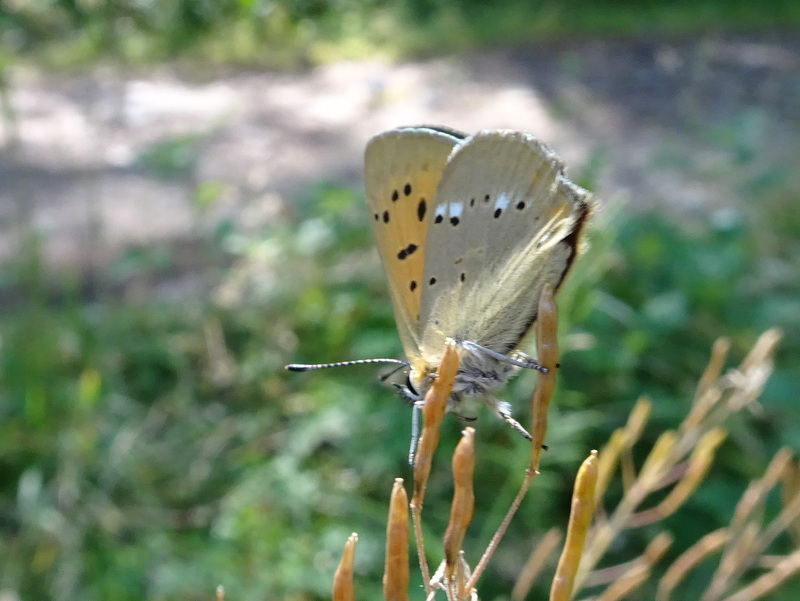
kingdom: Animalia
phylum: Arthropoda
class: Insecta
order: Lepidoptera
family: Lycaenidae
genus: Lycaena
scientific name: Lycaena virgaureae
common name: Scarce copper
